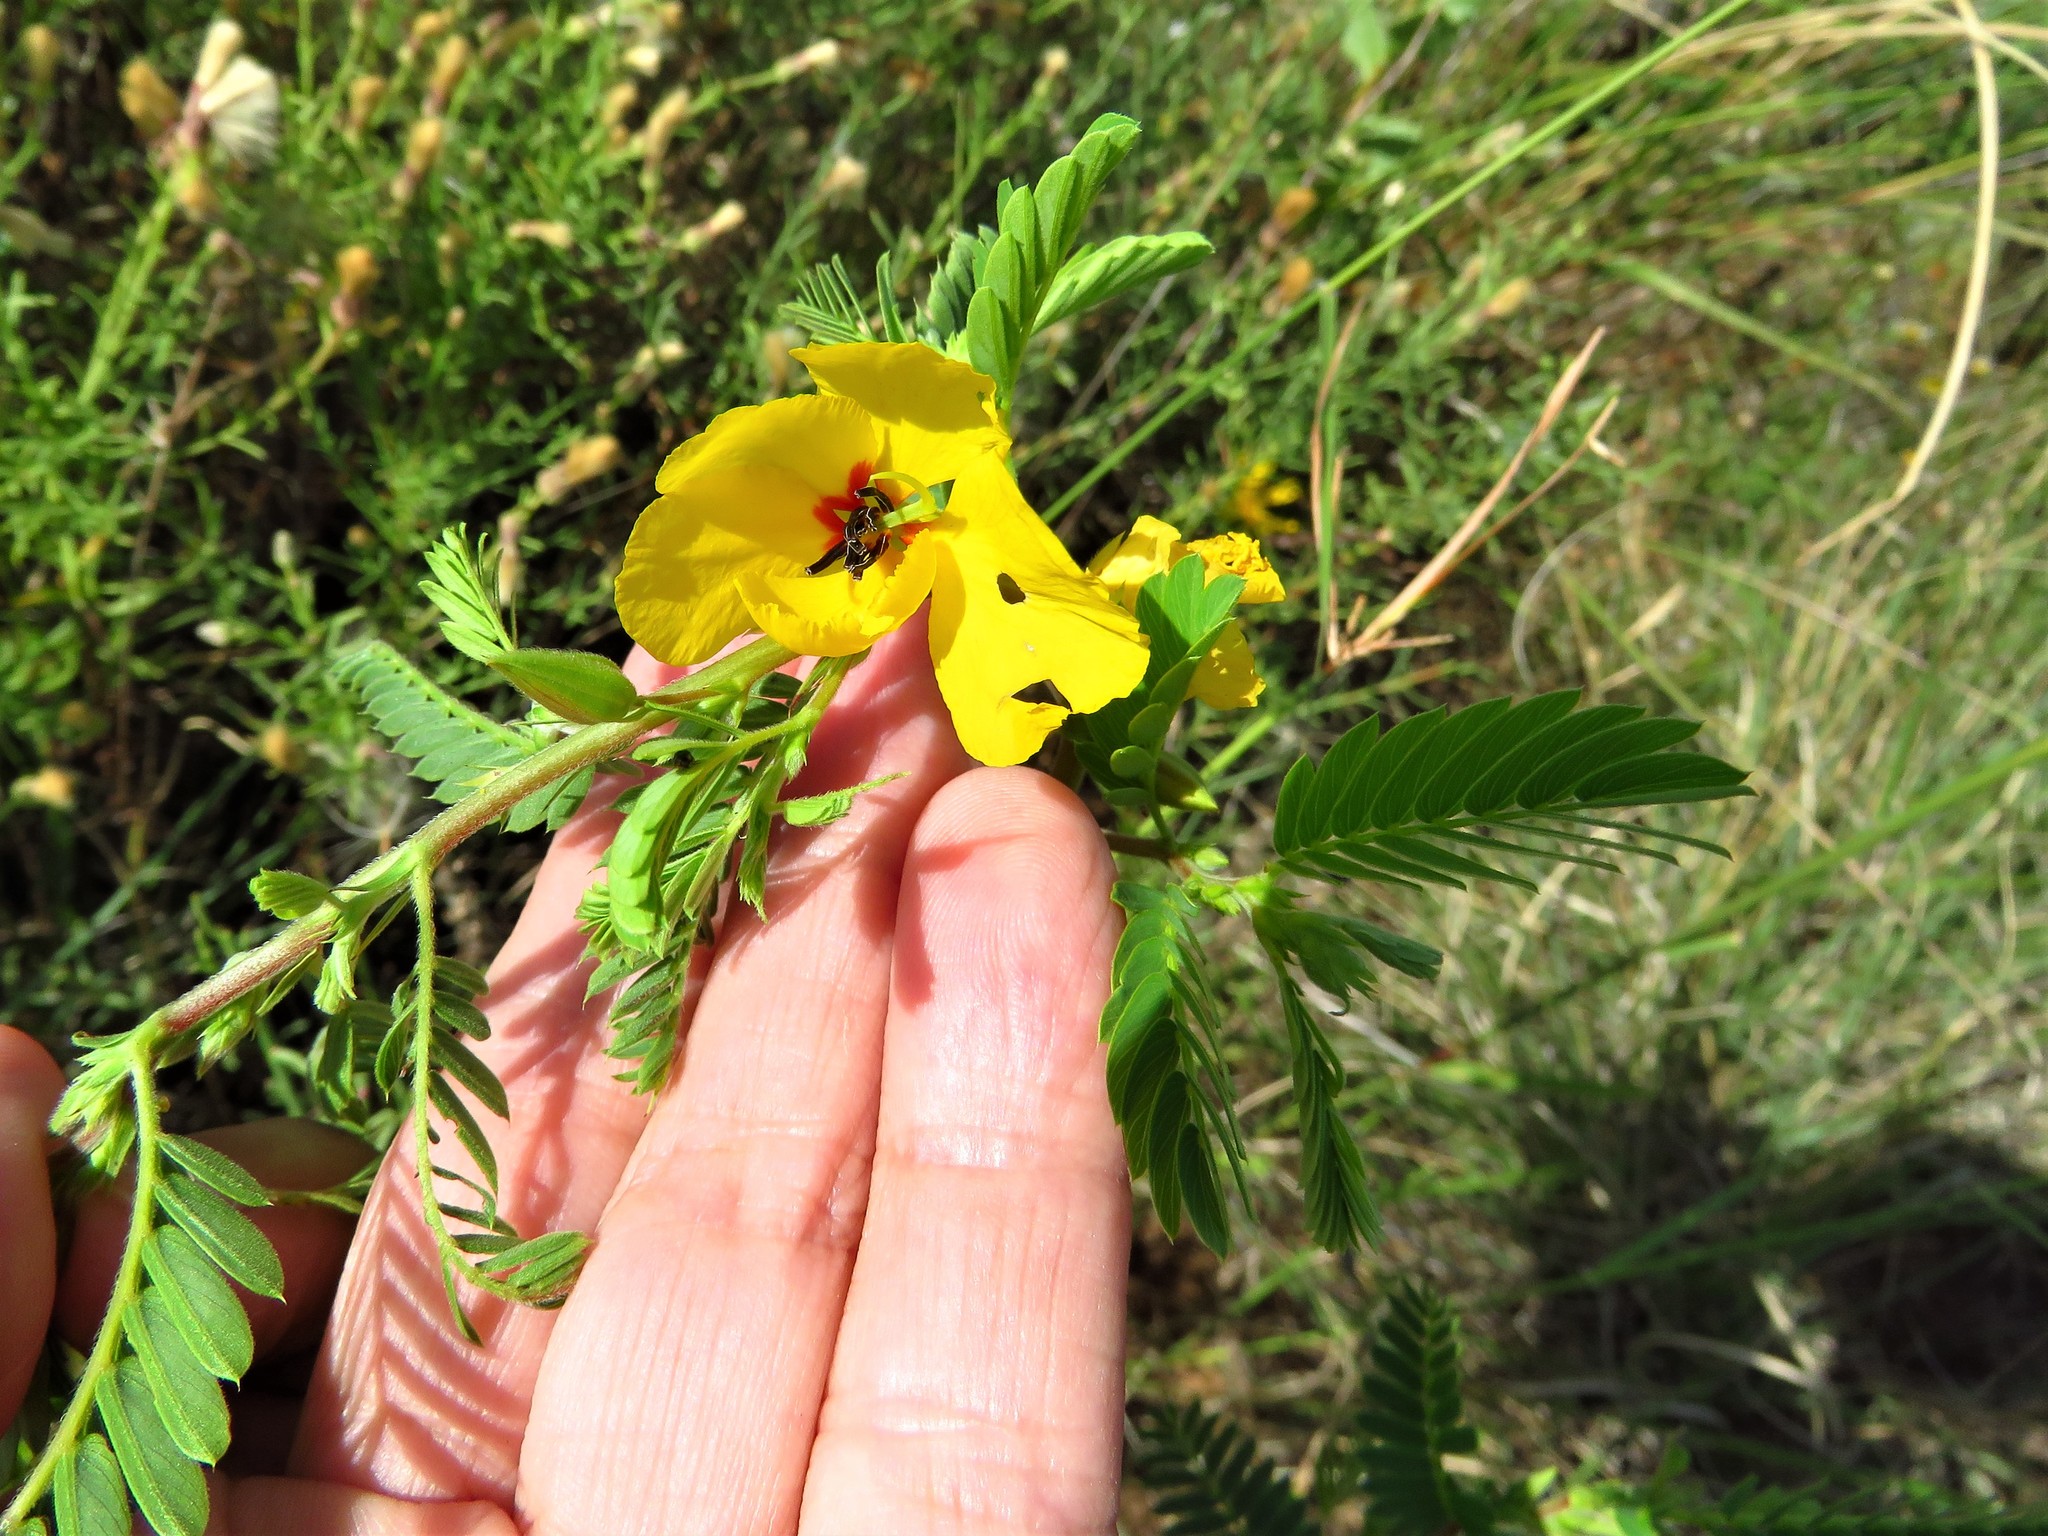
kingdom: Plantae
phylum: Tracheophyta
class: Magnoliopsida
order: Fabales
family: Fabaceae
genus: Chamaecrista
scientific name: Chamaecrista fasciculata
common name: Golden cassia
